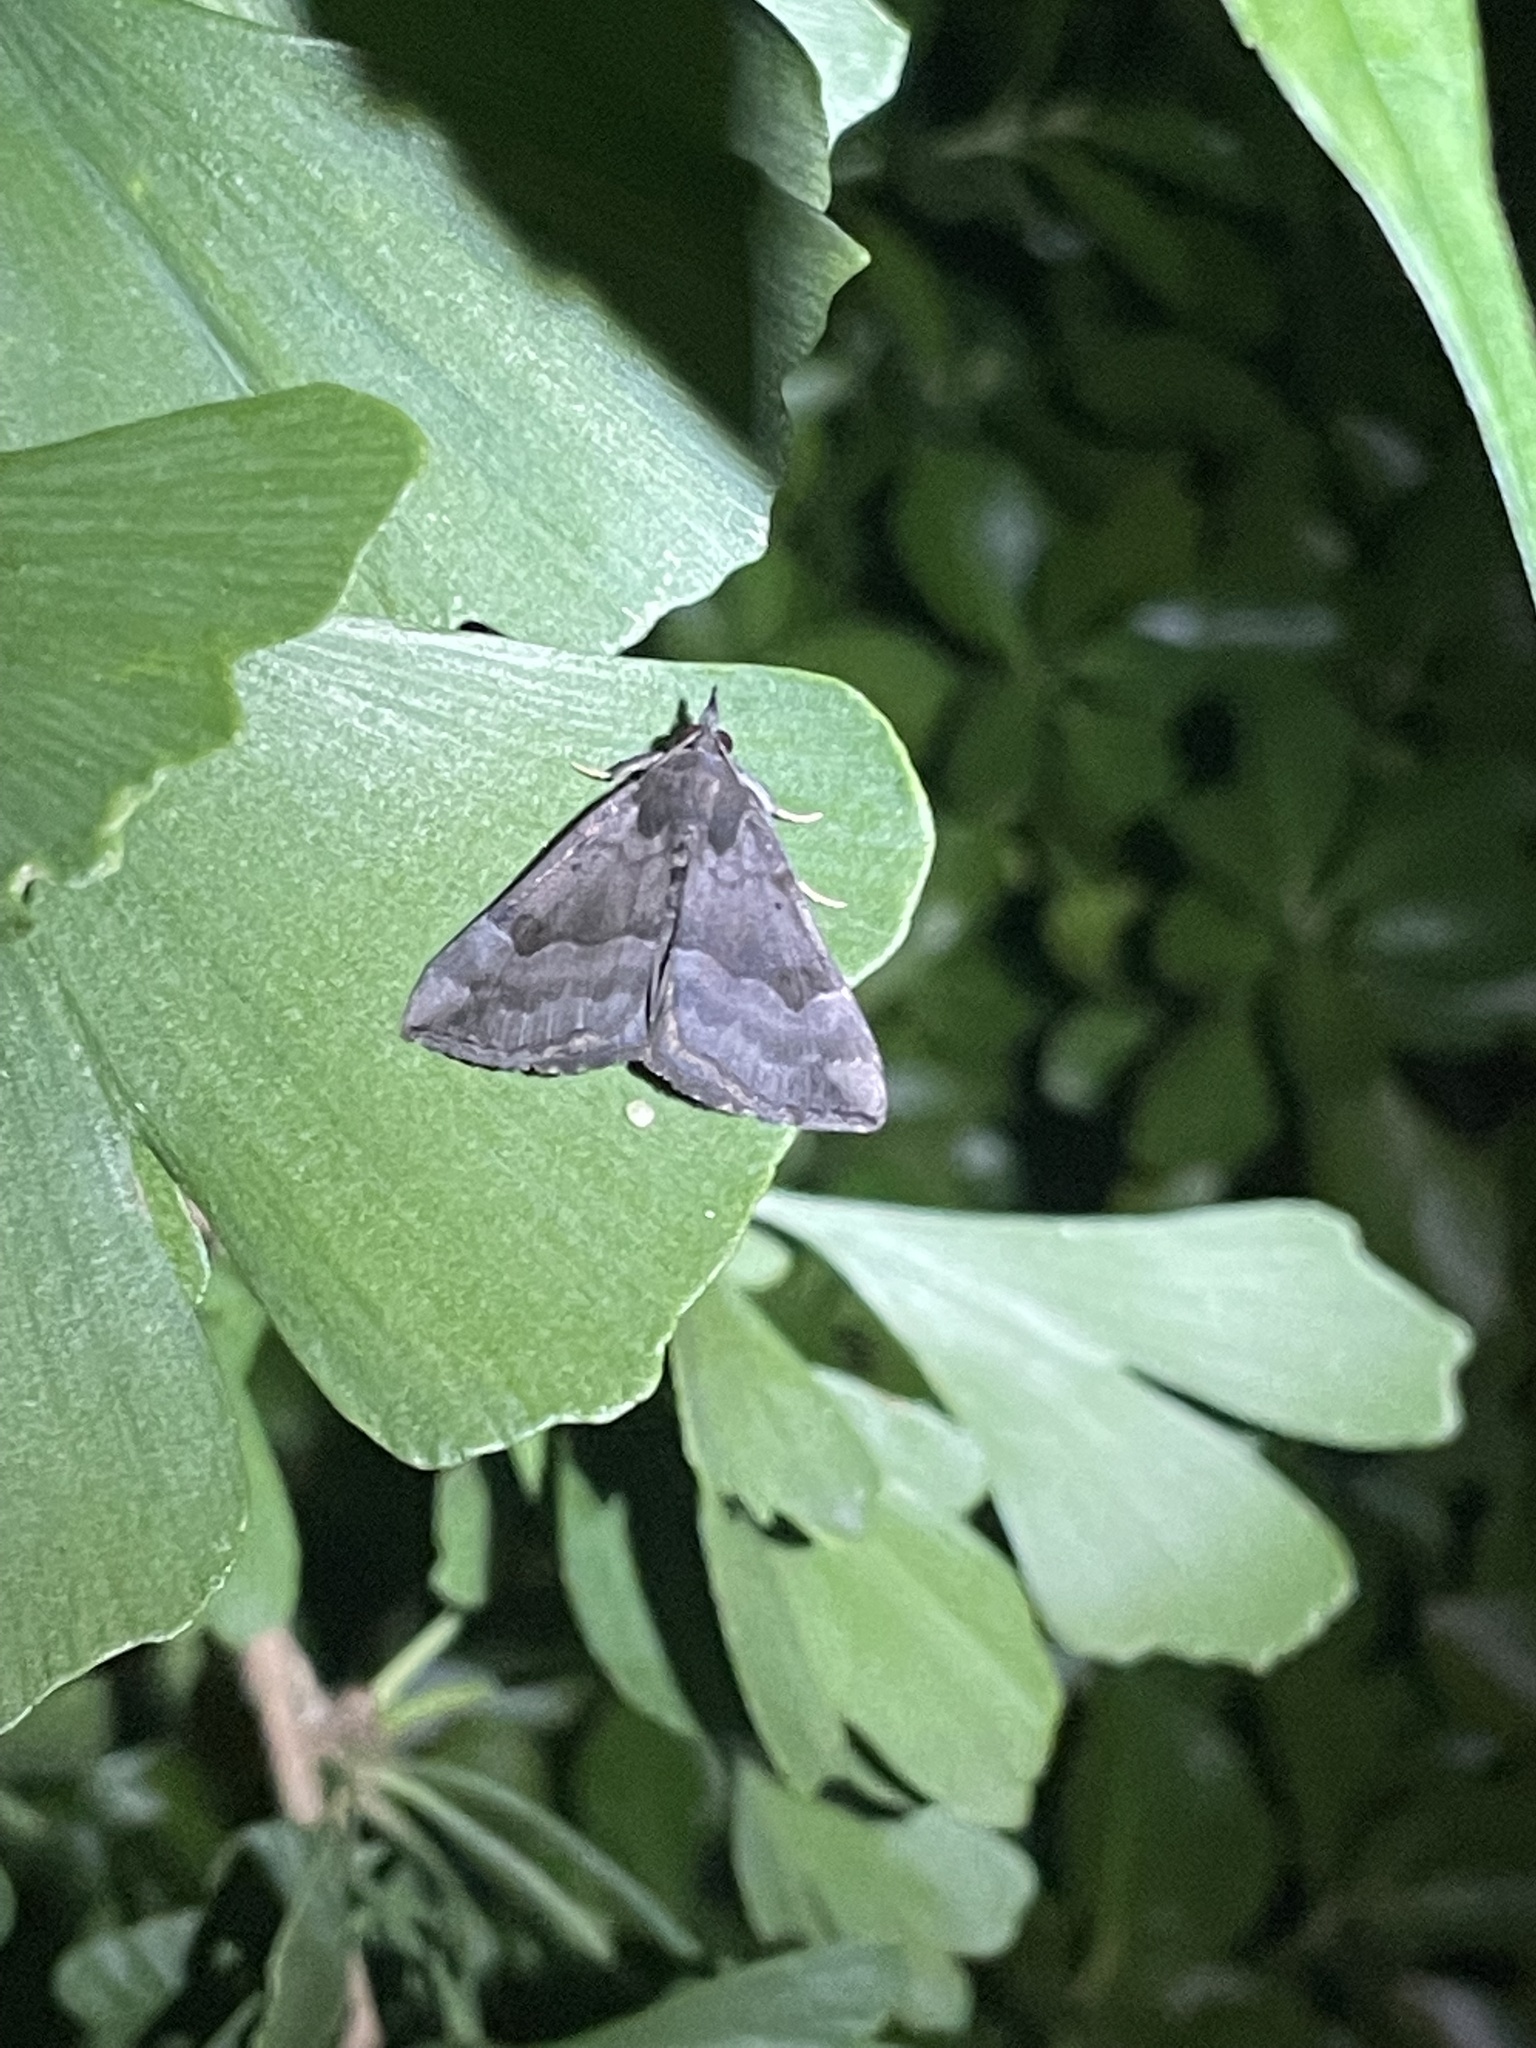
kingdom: Animalia
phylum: Arthropoda
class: Insecta
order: Lepidoptera
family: Erebidae
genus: Hypena
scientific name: Hypena madefactalis
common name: Gray-edged snout
